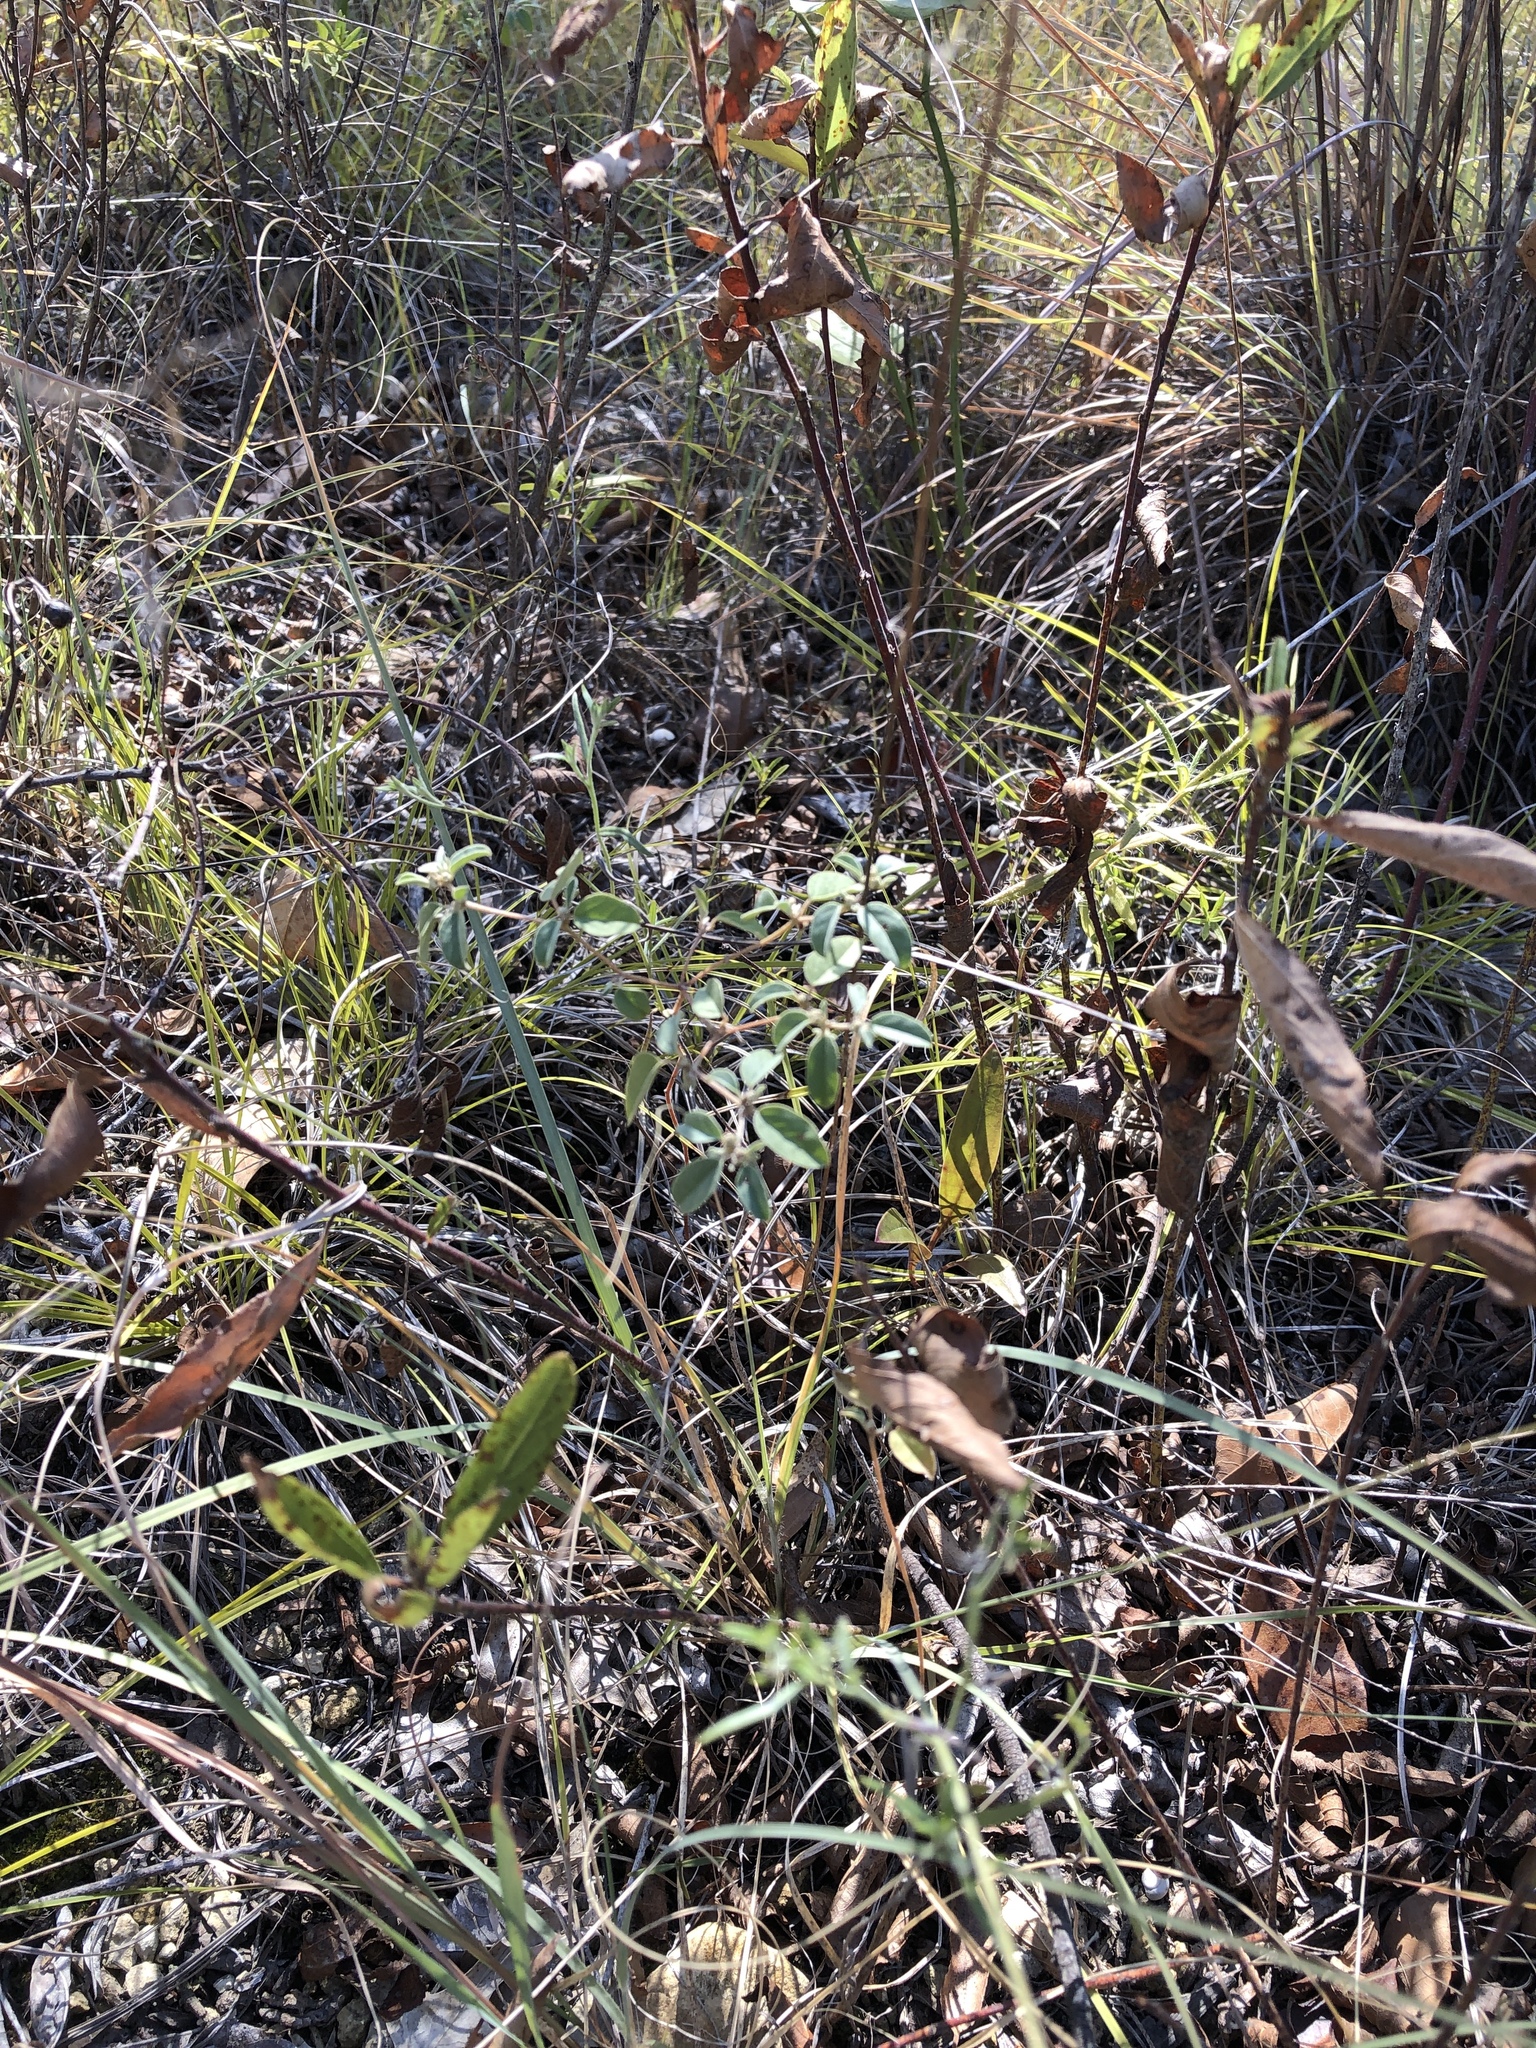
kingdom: Plantae
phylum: Tracheophyta
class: Magnoliopsida
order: Malpighiales
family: Euphorbiaceae
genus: Croton
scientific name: Croton monanthogynus
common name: One-seed croton
